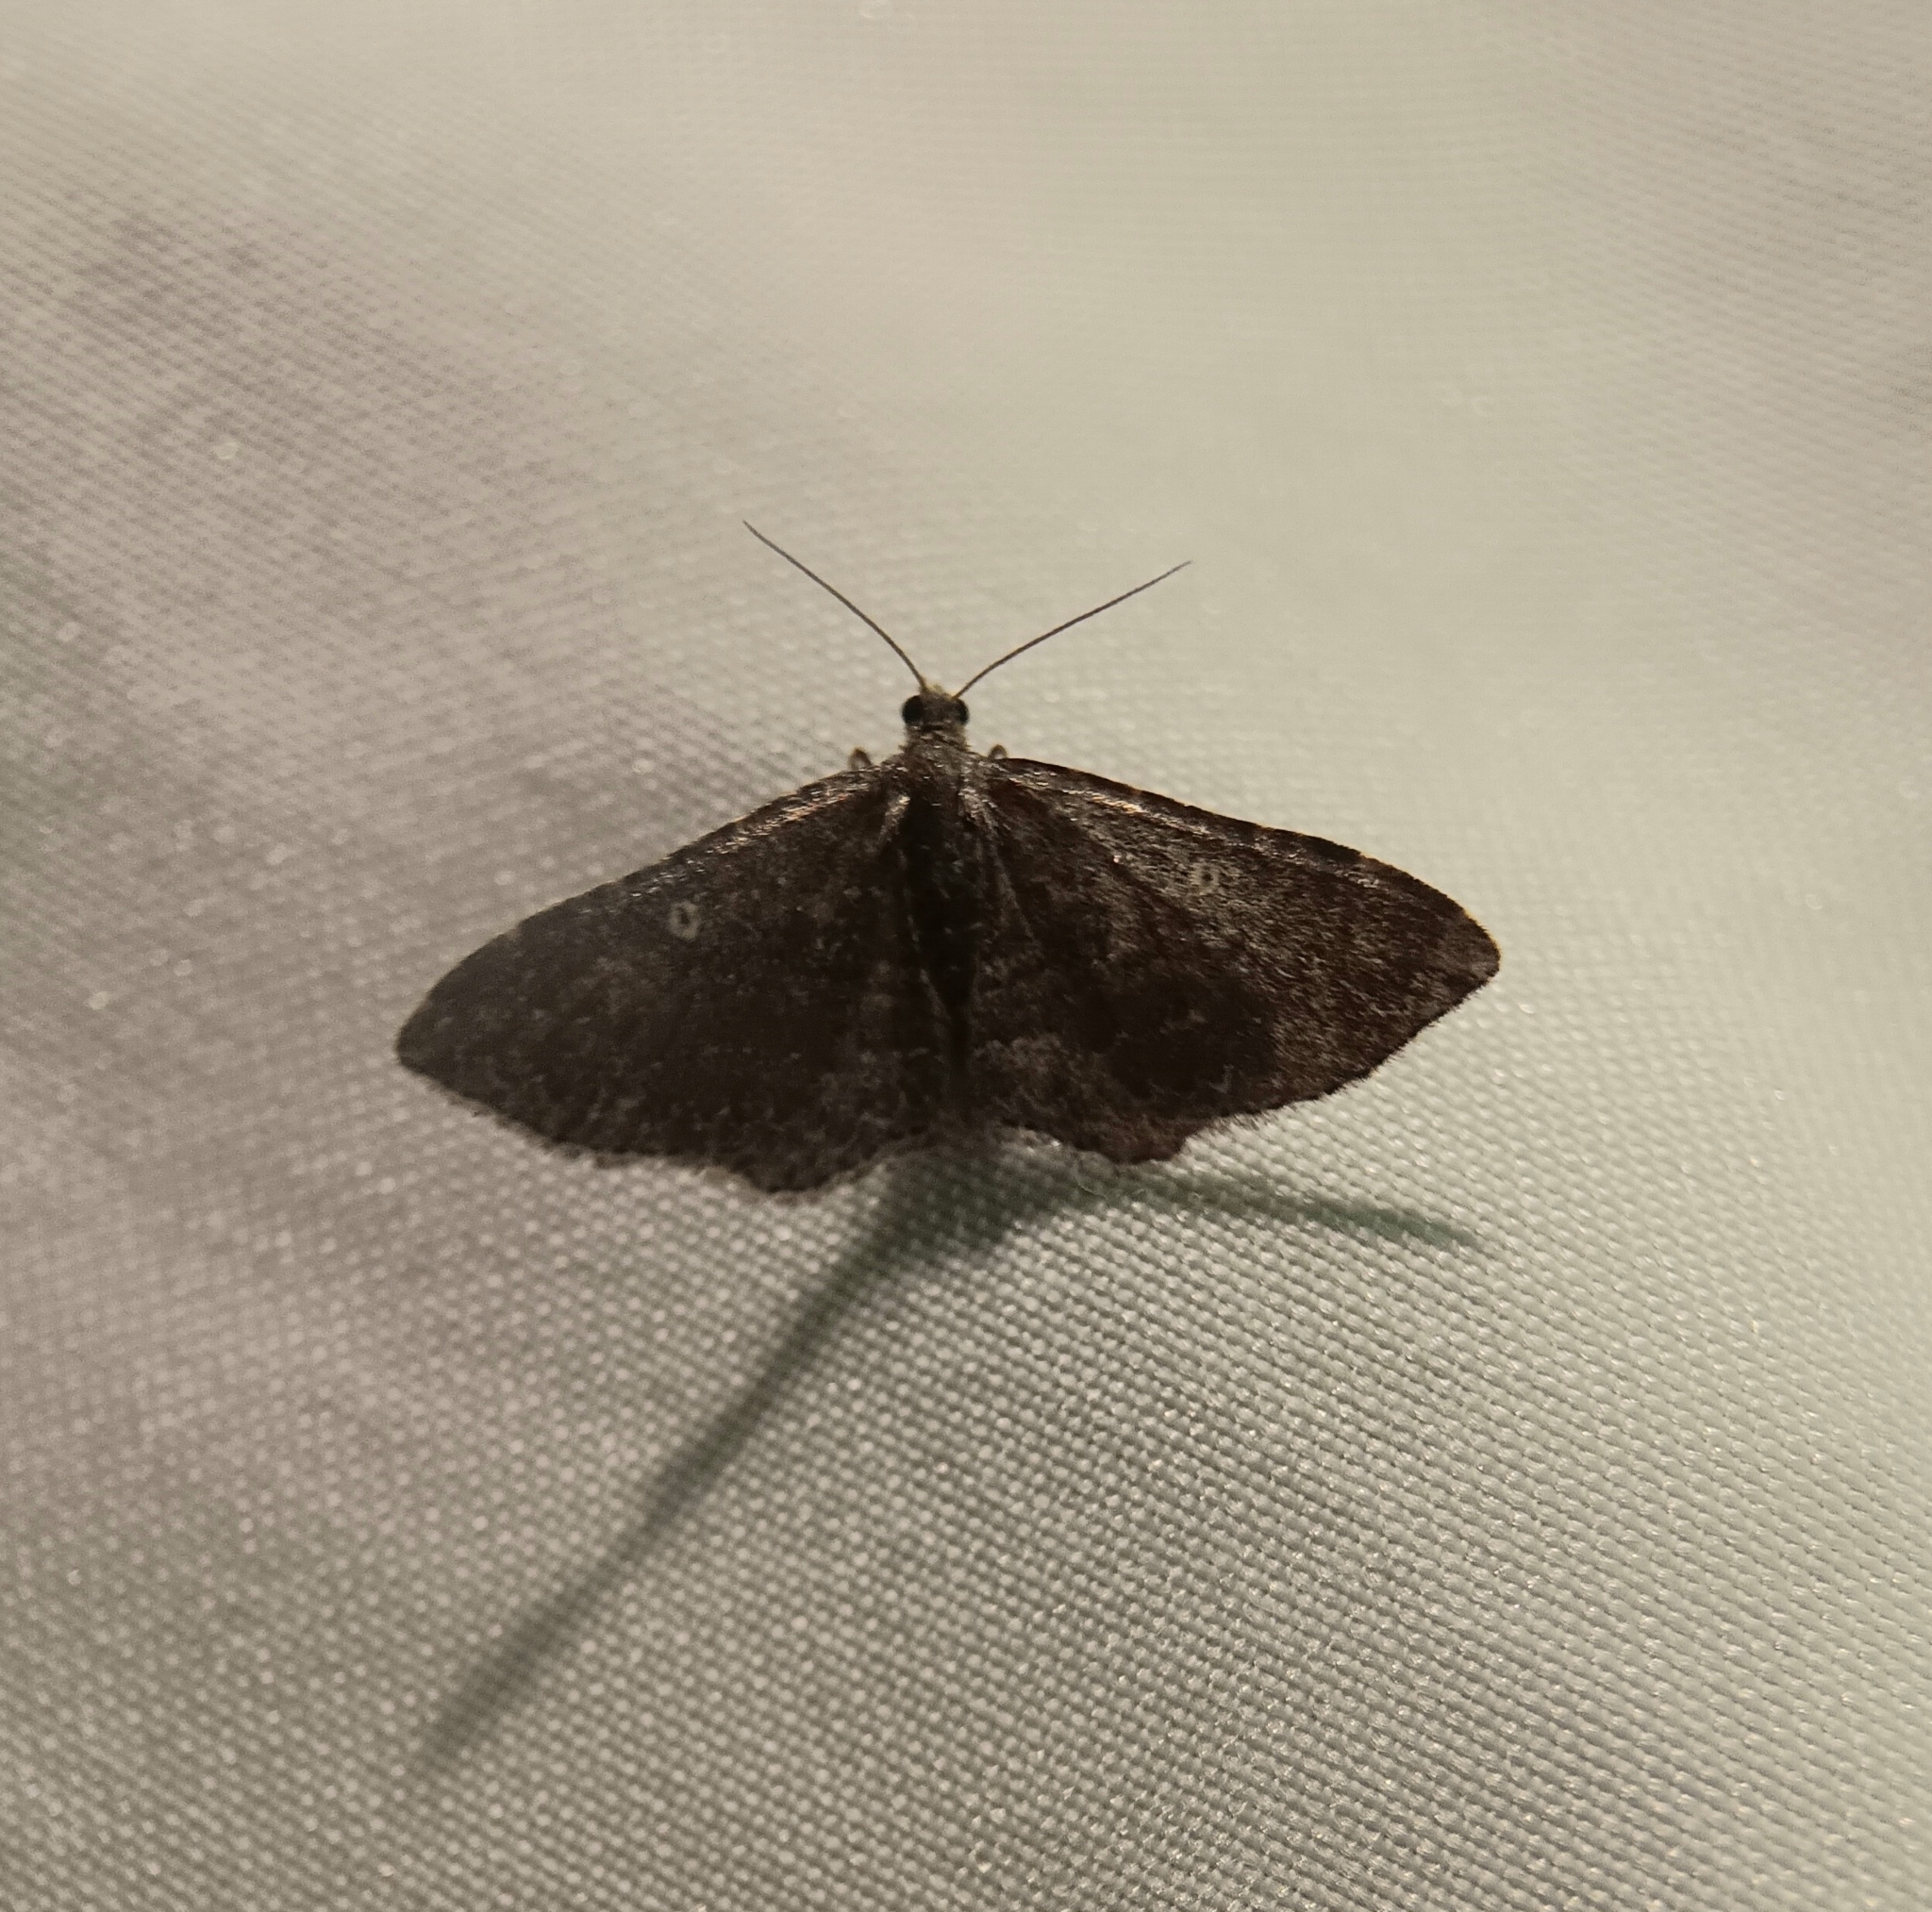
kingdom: Animalia
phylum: Arthropoda
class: Insecta
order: Lepidoptera
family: Geometridae
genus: Orthonama
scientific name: Orthonama obstipata
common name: The gem
